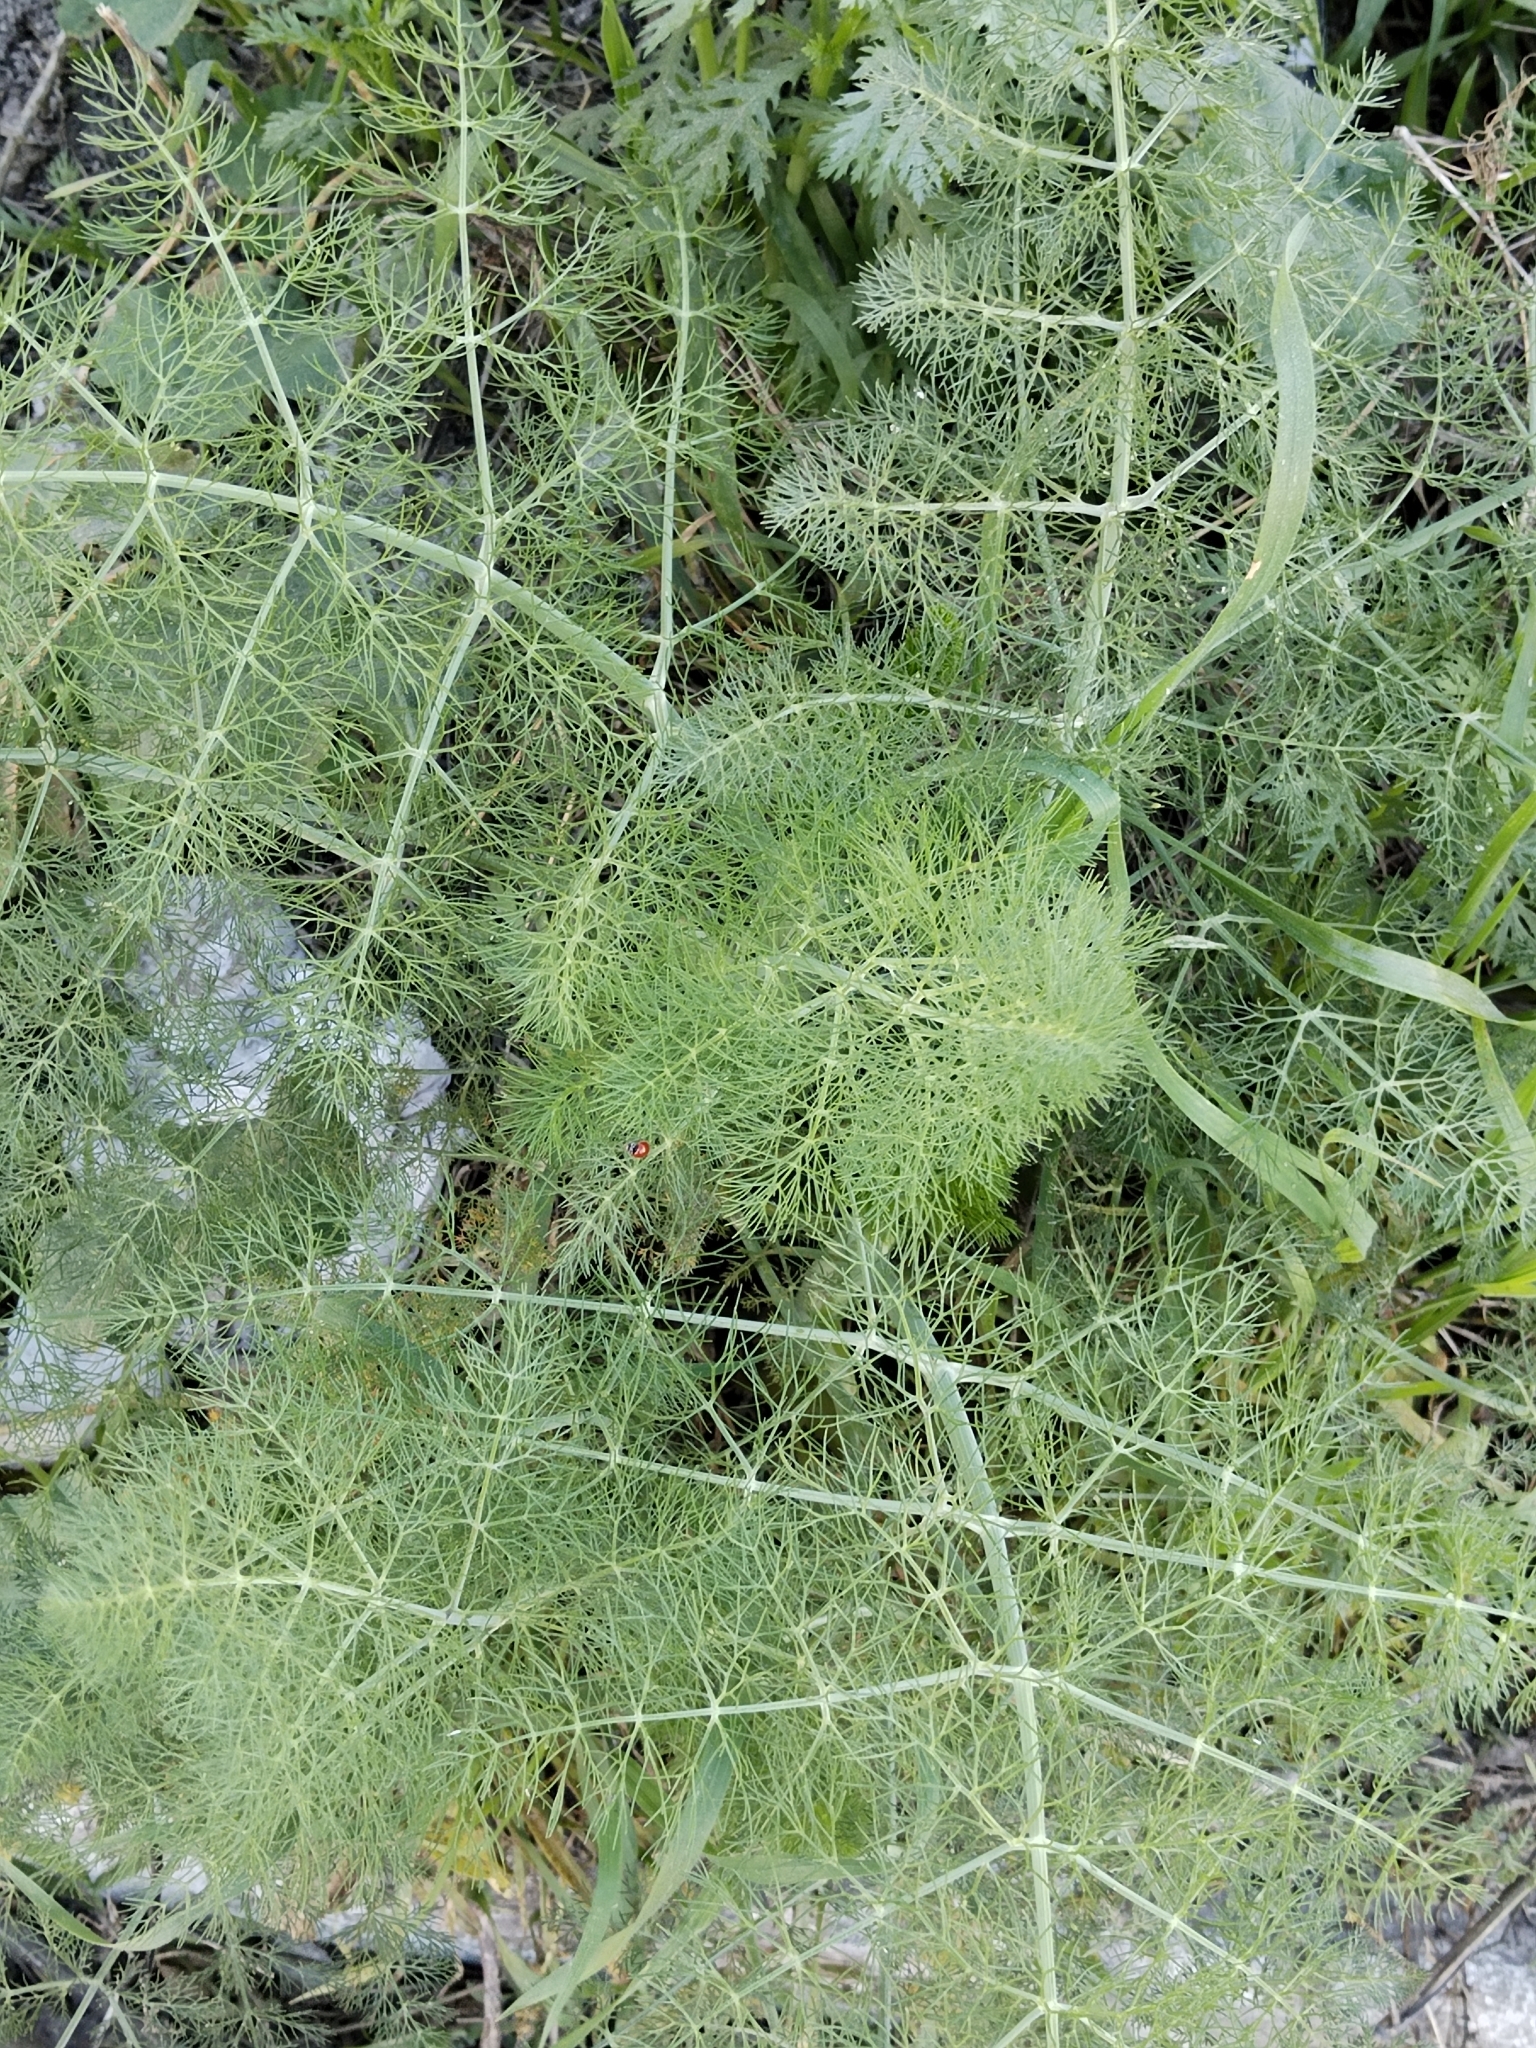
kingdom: Plantae
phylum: Tracheophyta
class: Magnoliopsida
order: Apiales
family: Apiaceae
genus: Foeniculum
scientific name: Foeniculum vulgare
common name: Fennel
